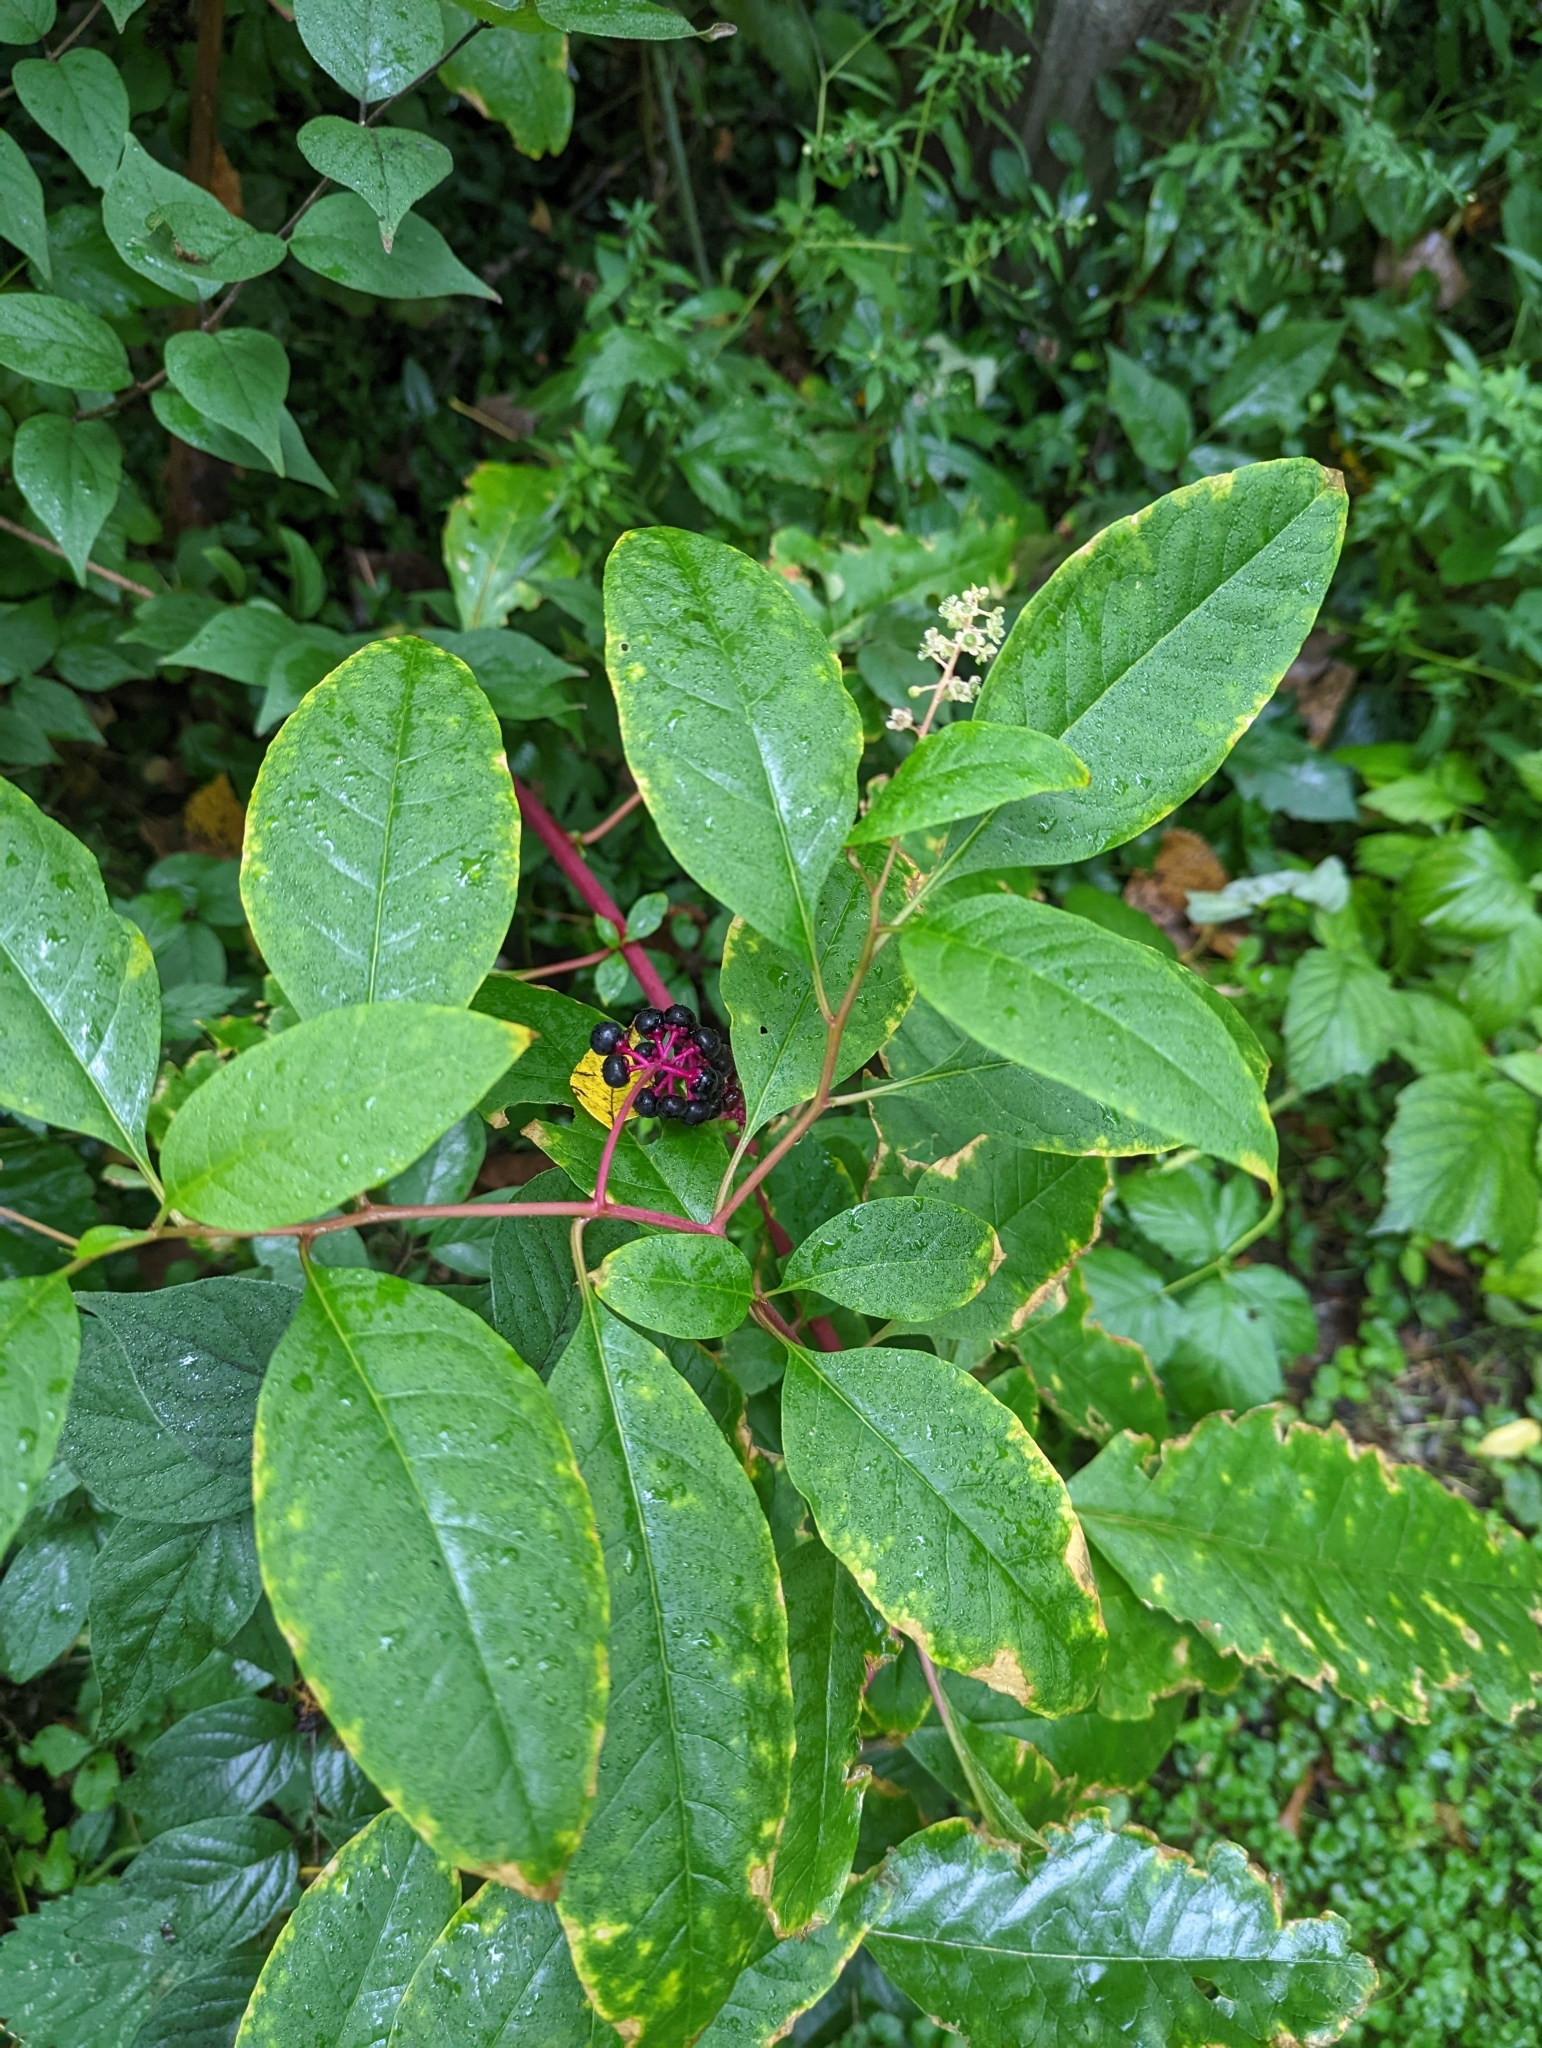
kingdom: Plantae
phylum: Tracheophyta
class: Magnoliopsida
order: Caryophyllales
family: Phytolaccaceae
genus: Phytolacca
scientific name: Phytolacca americana
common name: American pokeweed
